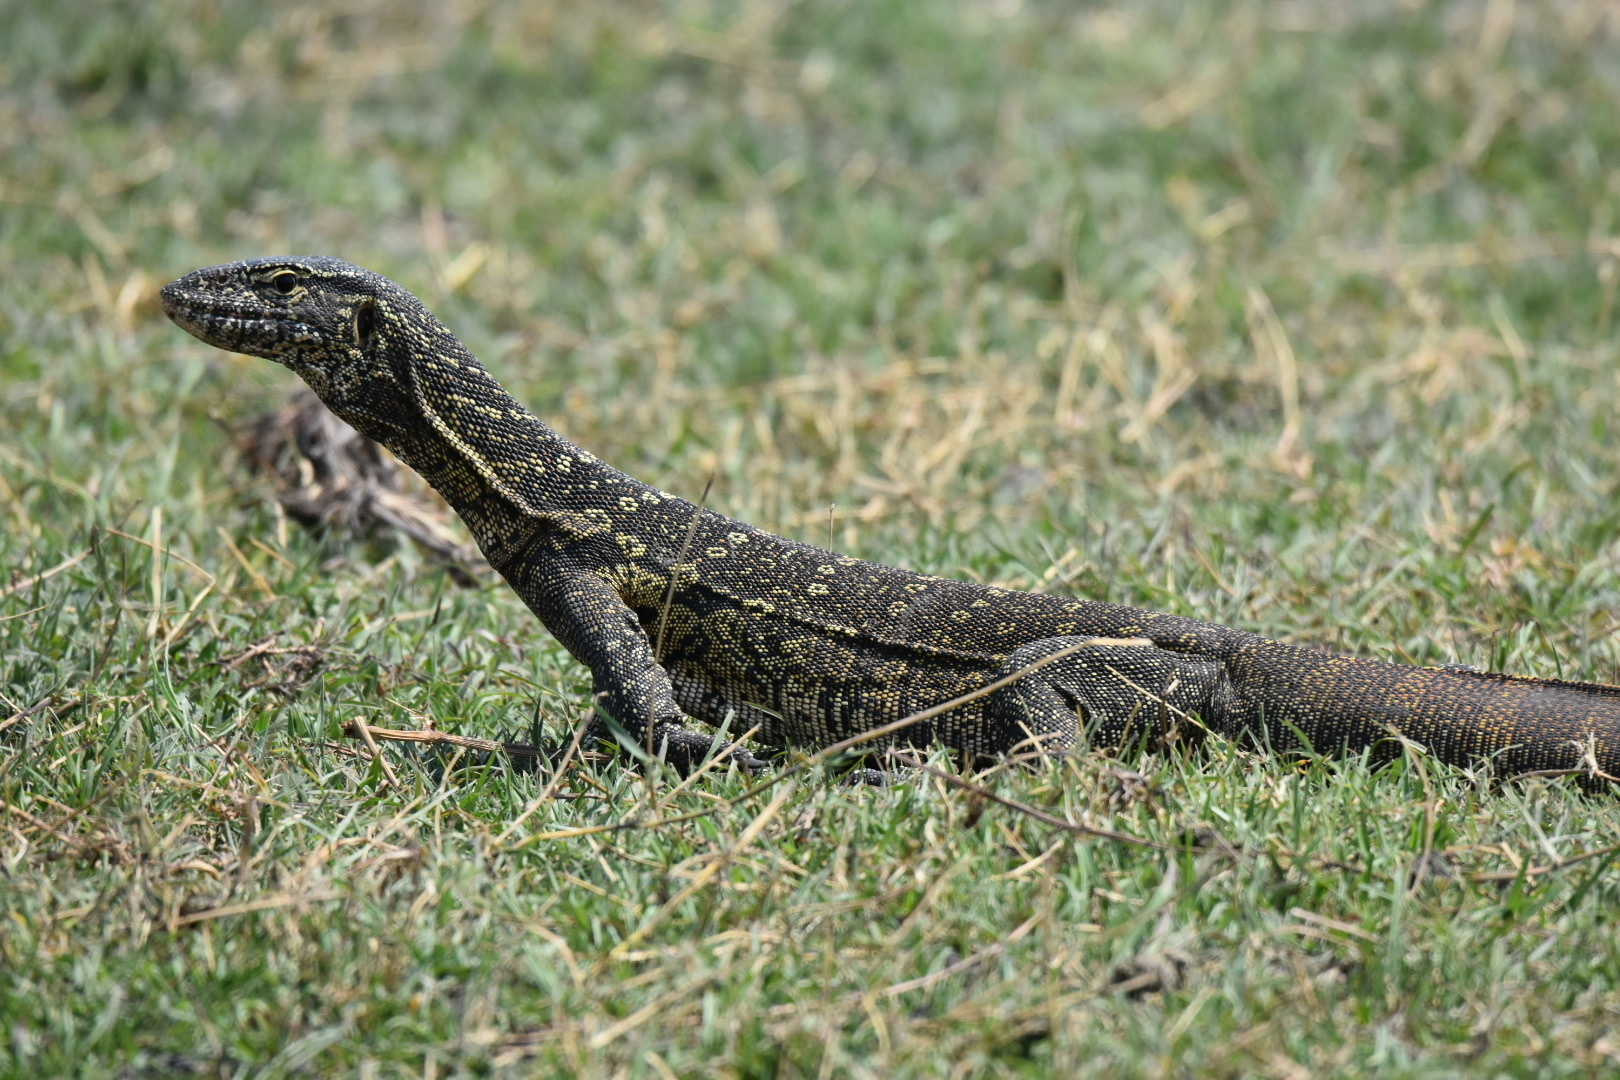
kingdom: Animalia
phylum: Chordata
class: Squamata
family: Varanidae
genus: Varanus
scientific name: Varanus niloticus
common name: Nile monitor
